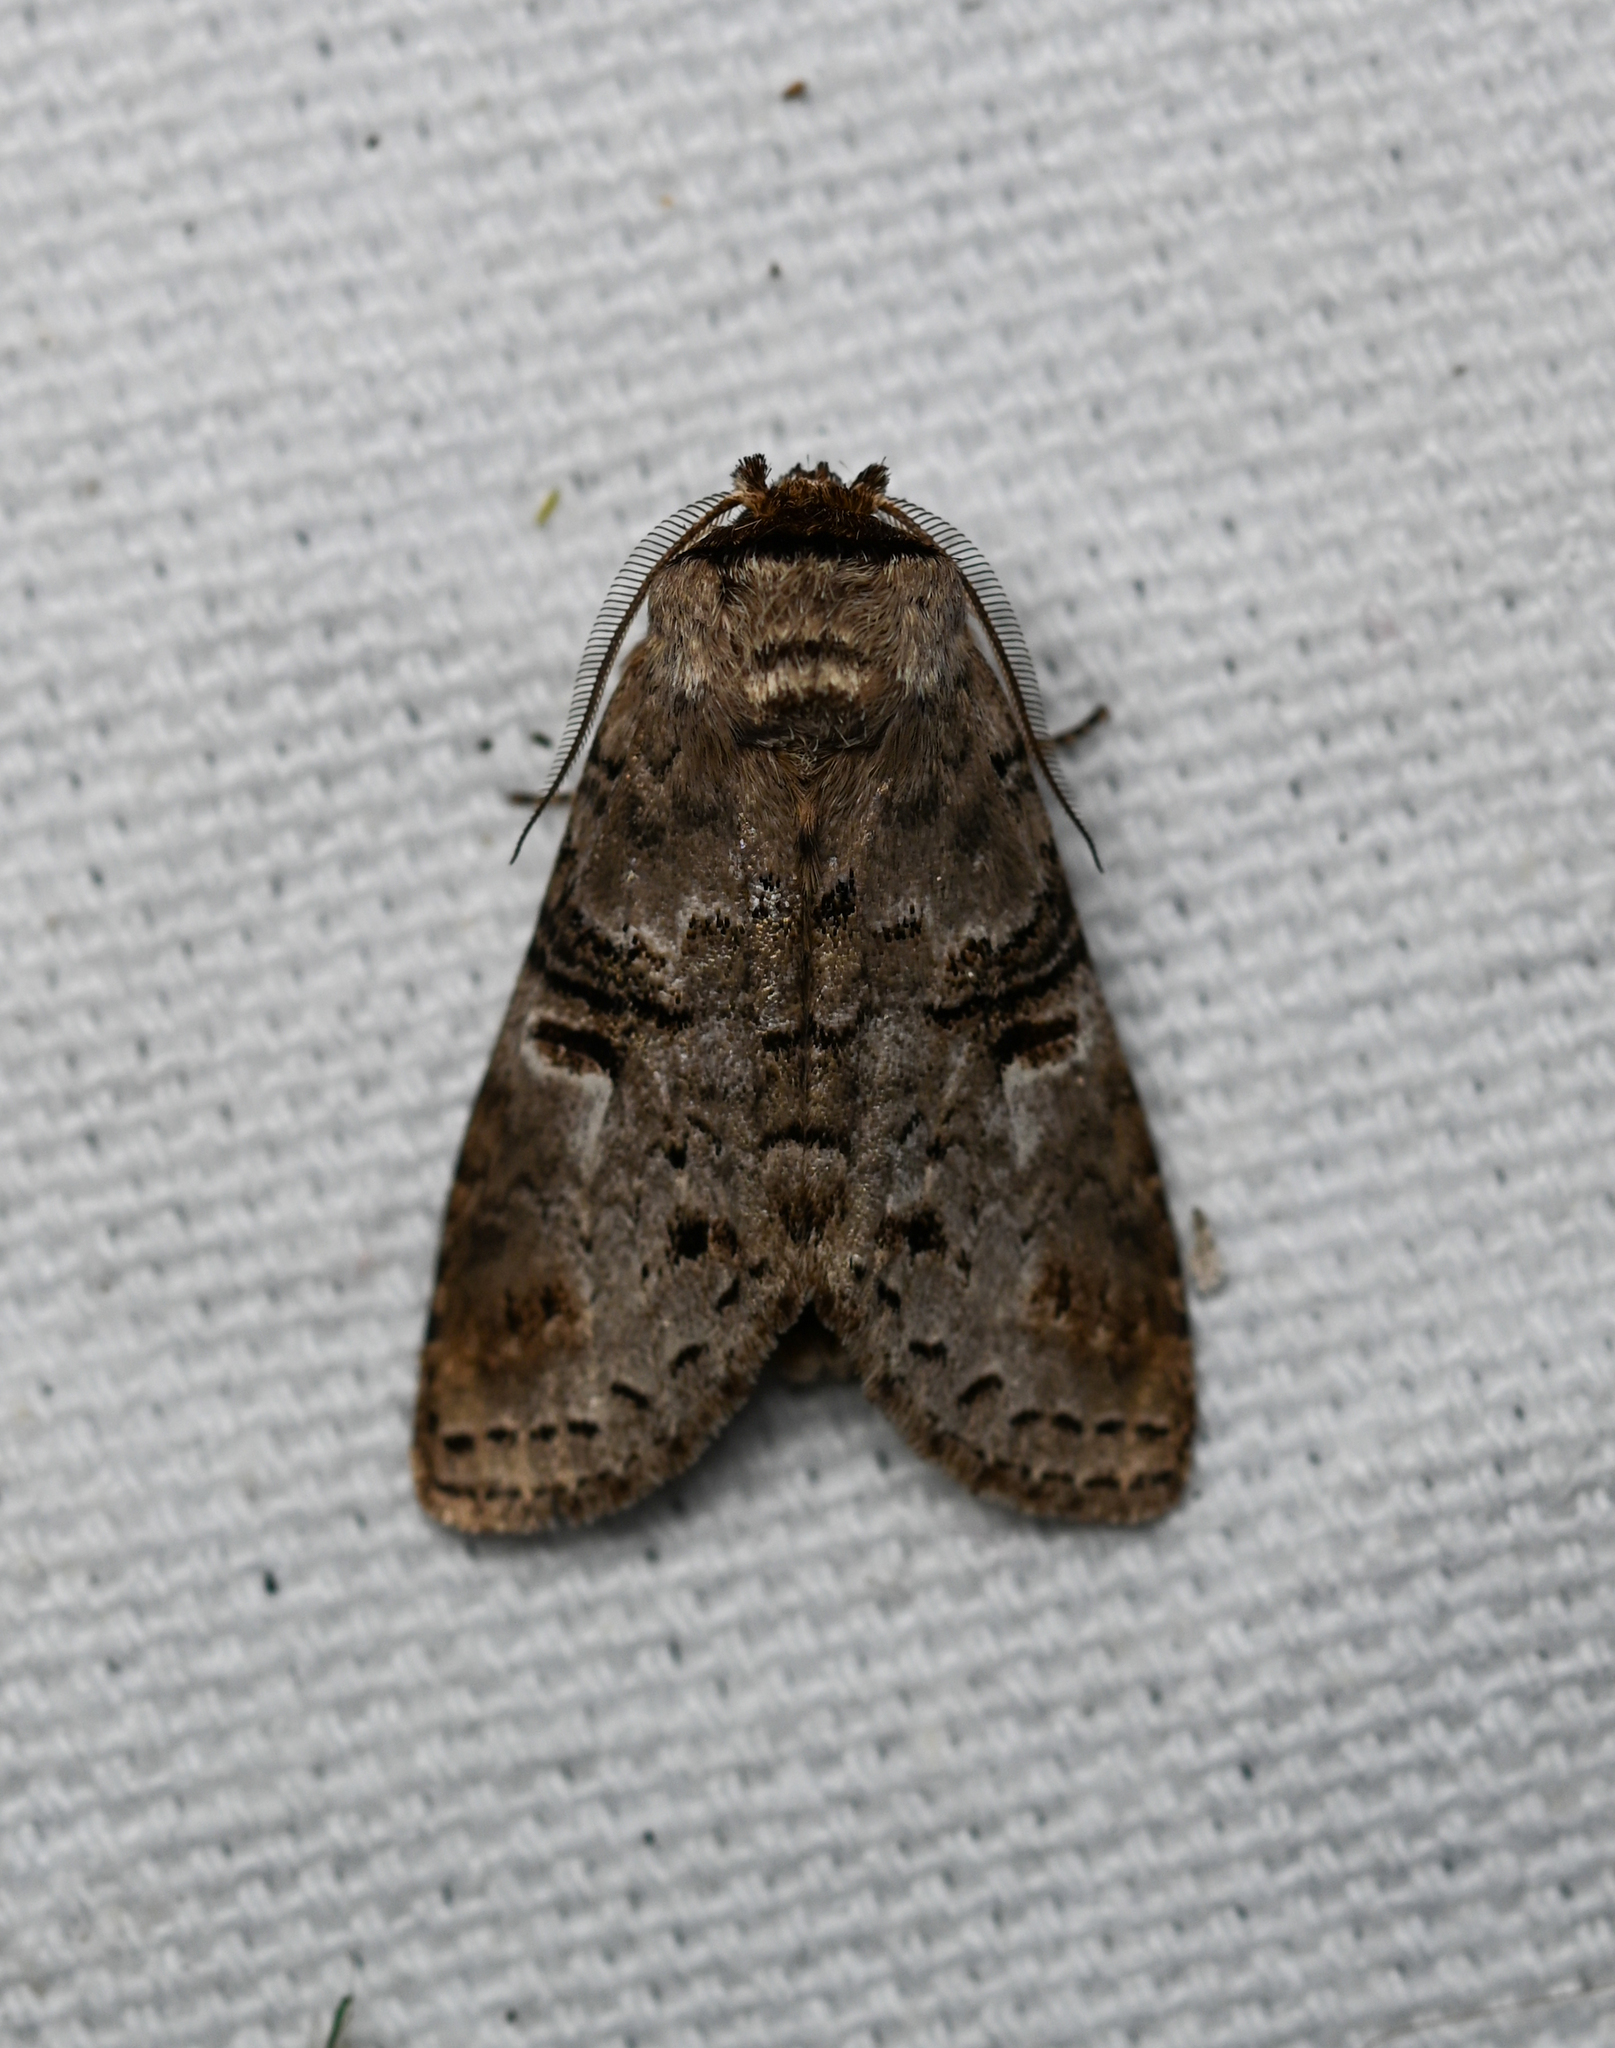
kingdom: Animalia
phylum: Arthropoda
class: Insecta
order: Lepidoptera
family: Notodontidae
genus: Ellida
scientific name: Ellida caniplaga
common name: Linden prominent
